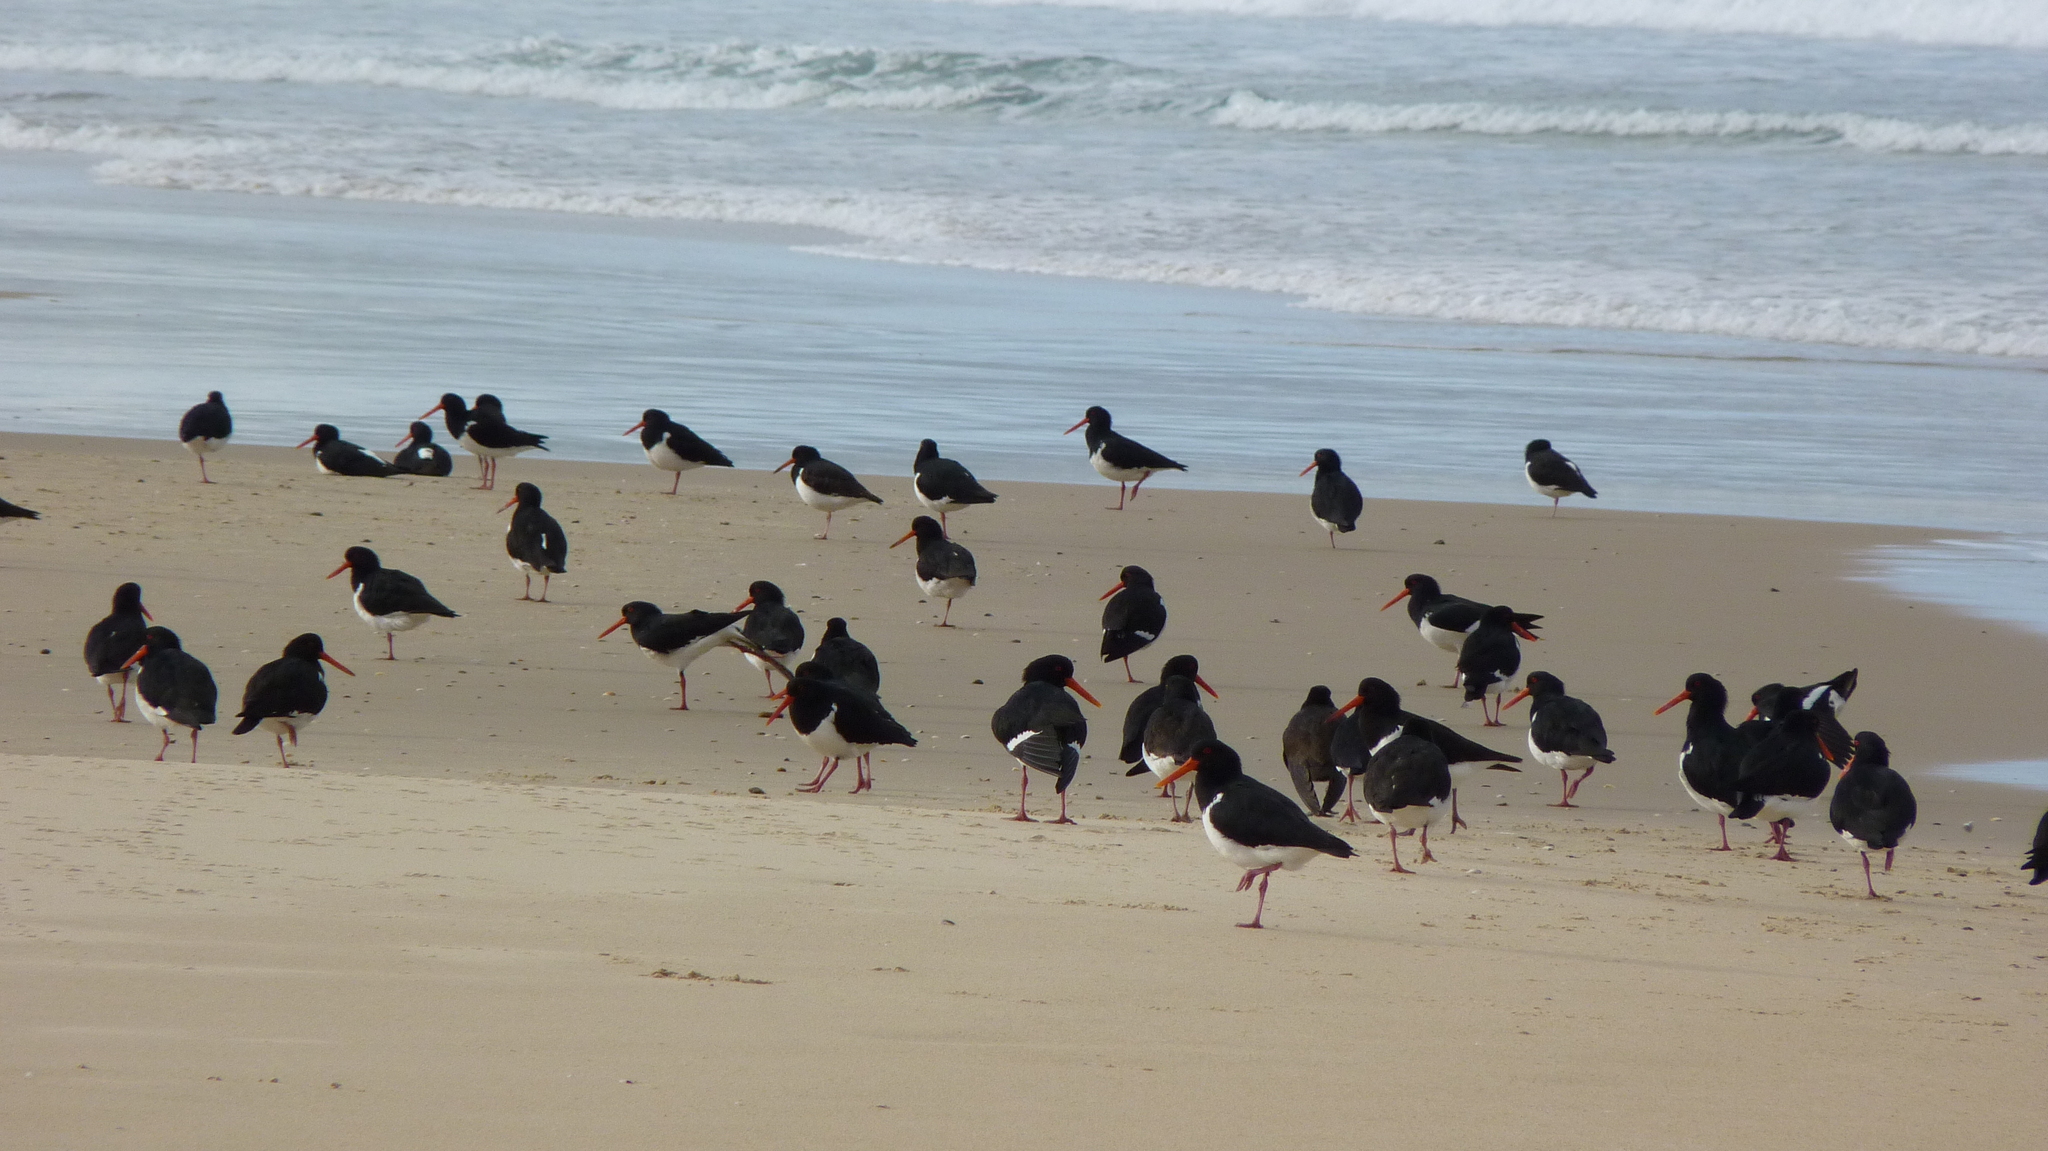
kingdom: Animalia
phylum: Chordata
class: Aves
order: Charadriiformes
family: Haematopodidae
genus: Haematopus
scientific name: Haematopus longirostris
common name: Pied oystercatcher
